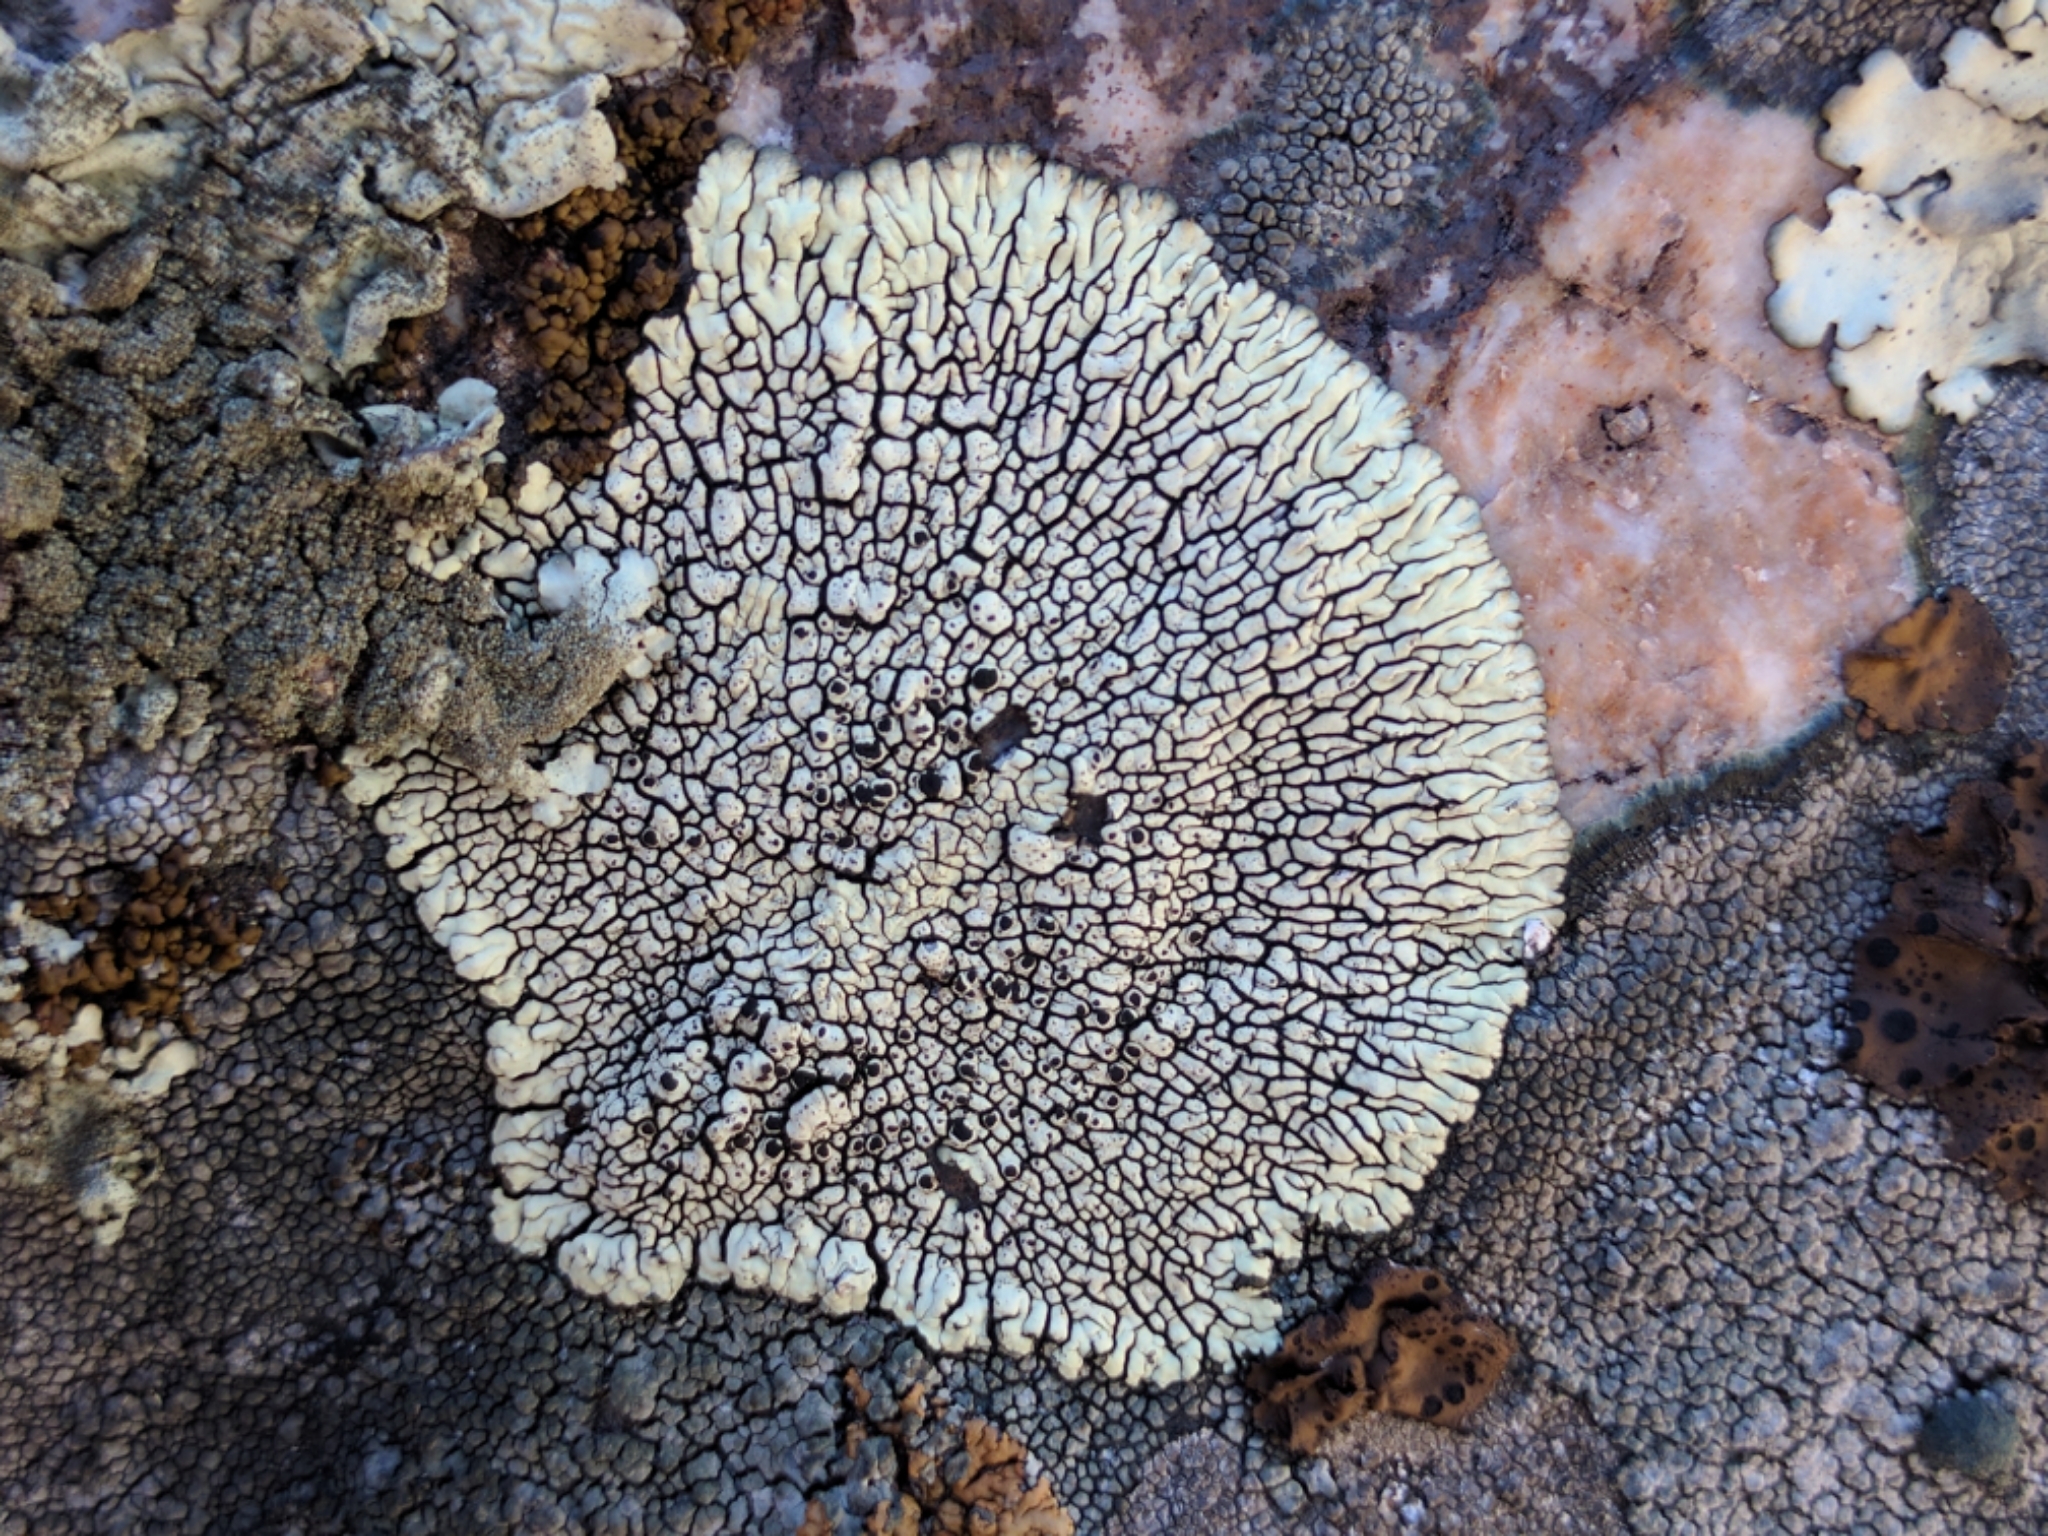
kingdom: Fungi
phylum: Ascomycota
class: Lecanoromycetes
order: Caliciales
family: Caliciaceae
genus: Dimelaena
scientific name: Dimelaena oreina
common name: Golden moonglow lichen
